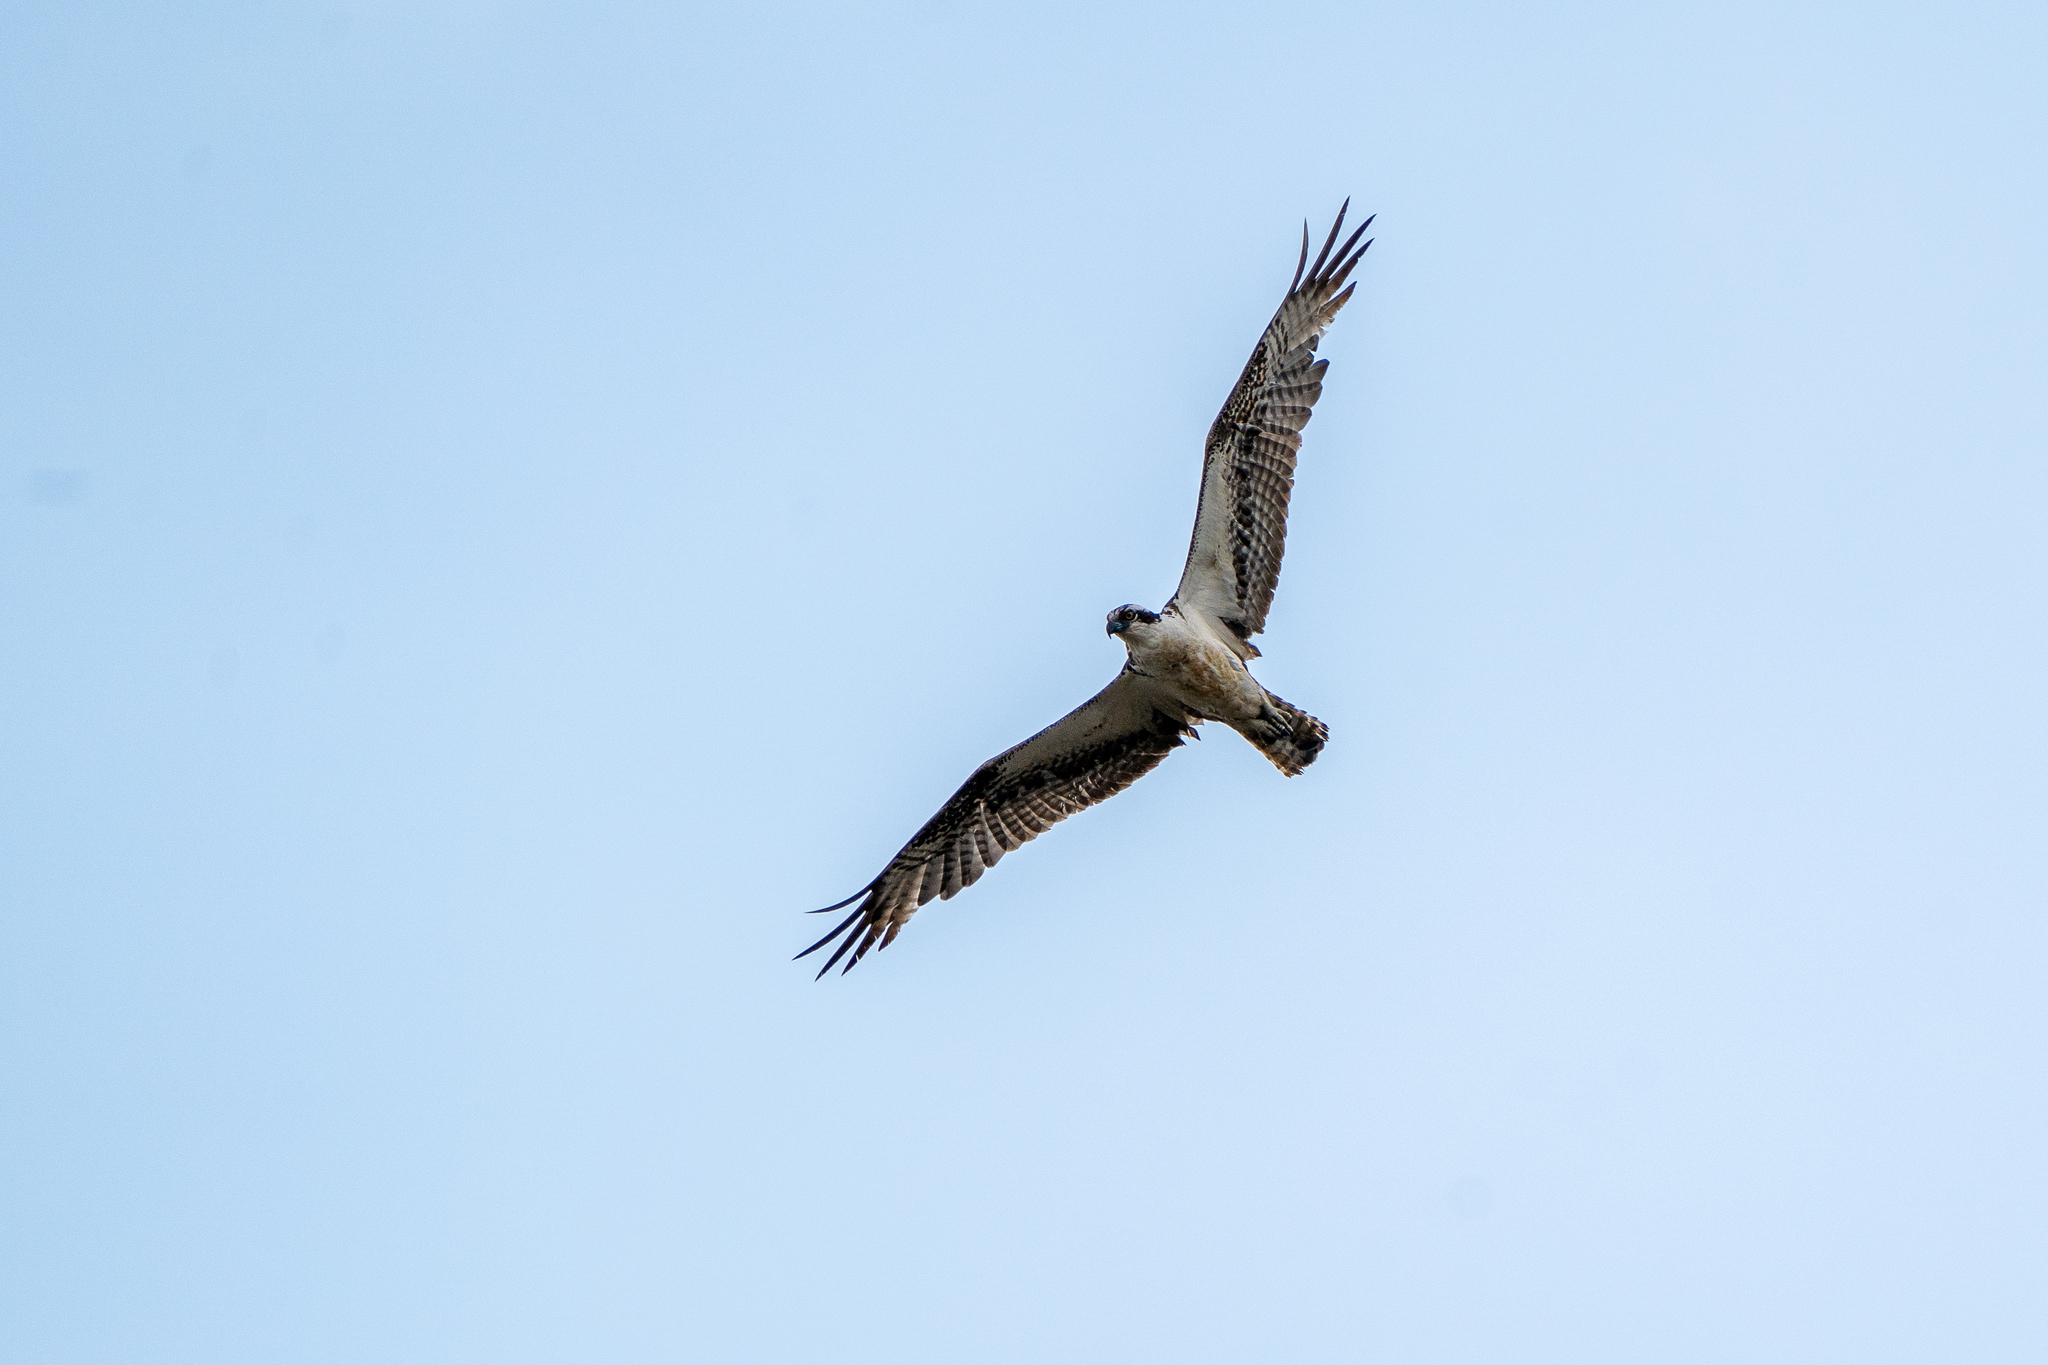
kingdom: Animalia
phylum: Chordata
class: Aves
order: Accipitriformes
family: Pandionidae
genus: Pandion
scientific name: Pandion haliaetus
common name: Osprey
